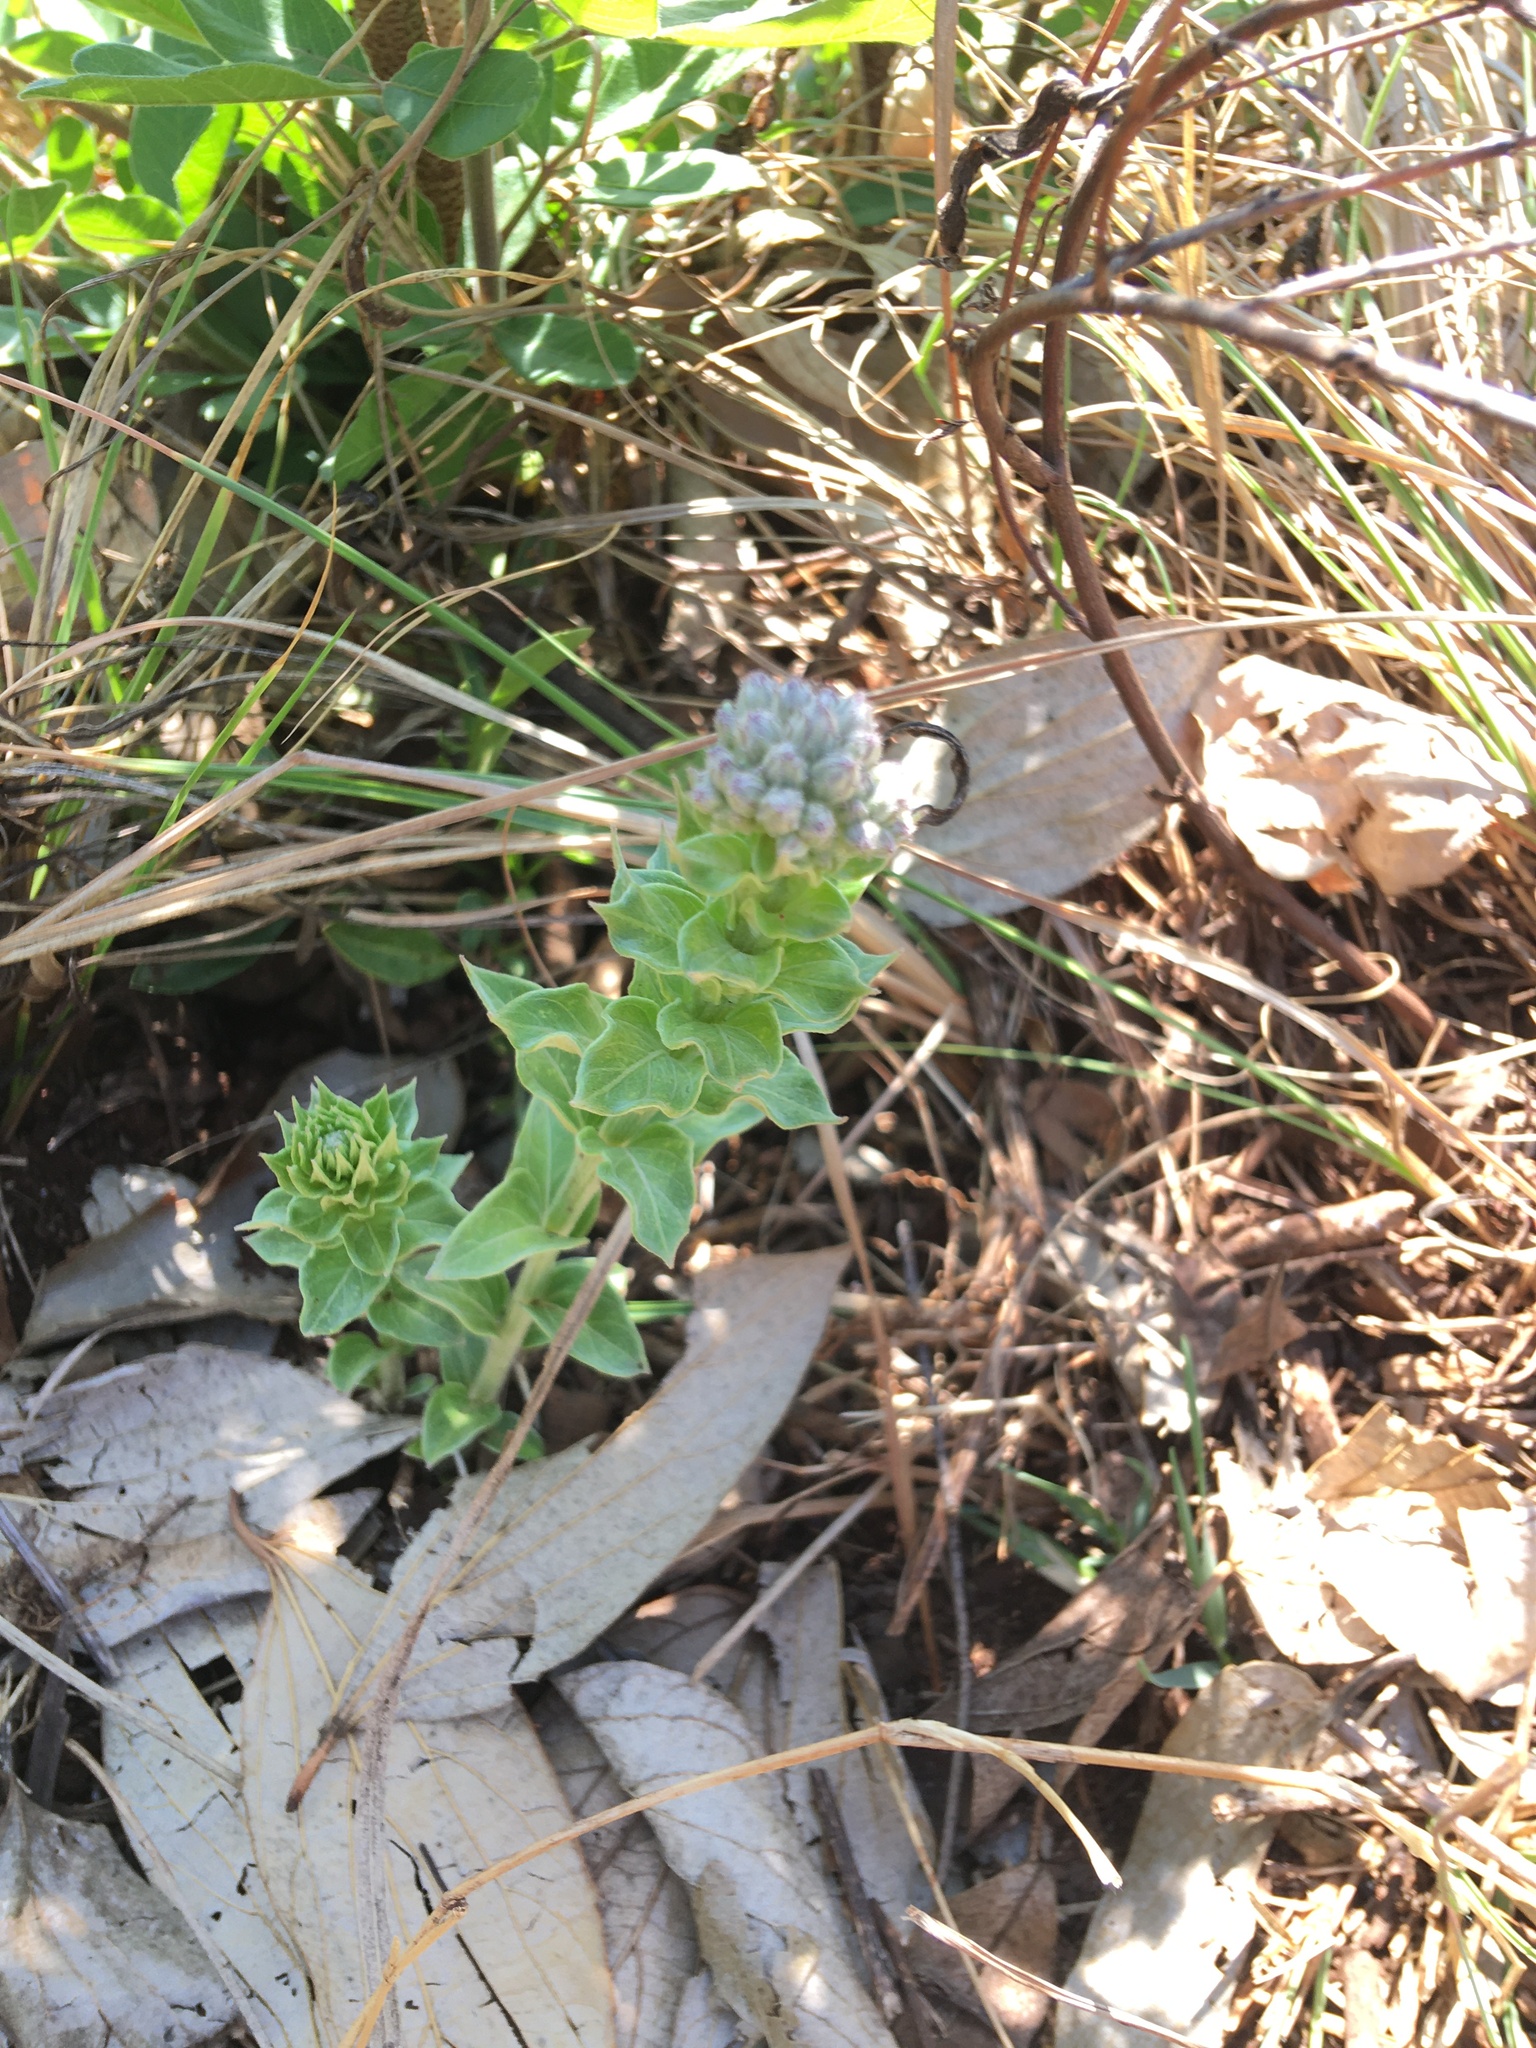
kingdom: Plantae
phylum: Tracheophyta
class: Magnoliopsida
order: Asterales
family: Asteraceae
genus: Hilliardiella
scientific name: Hilliardiella oligocephala
